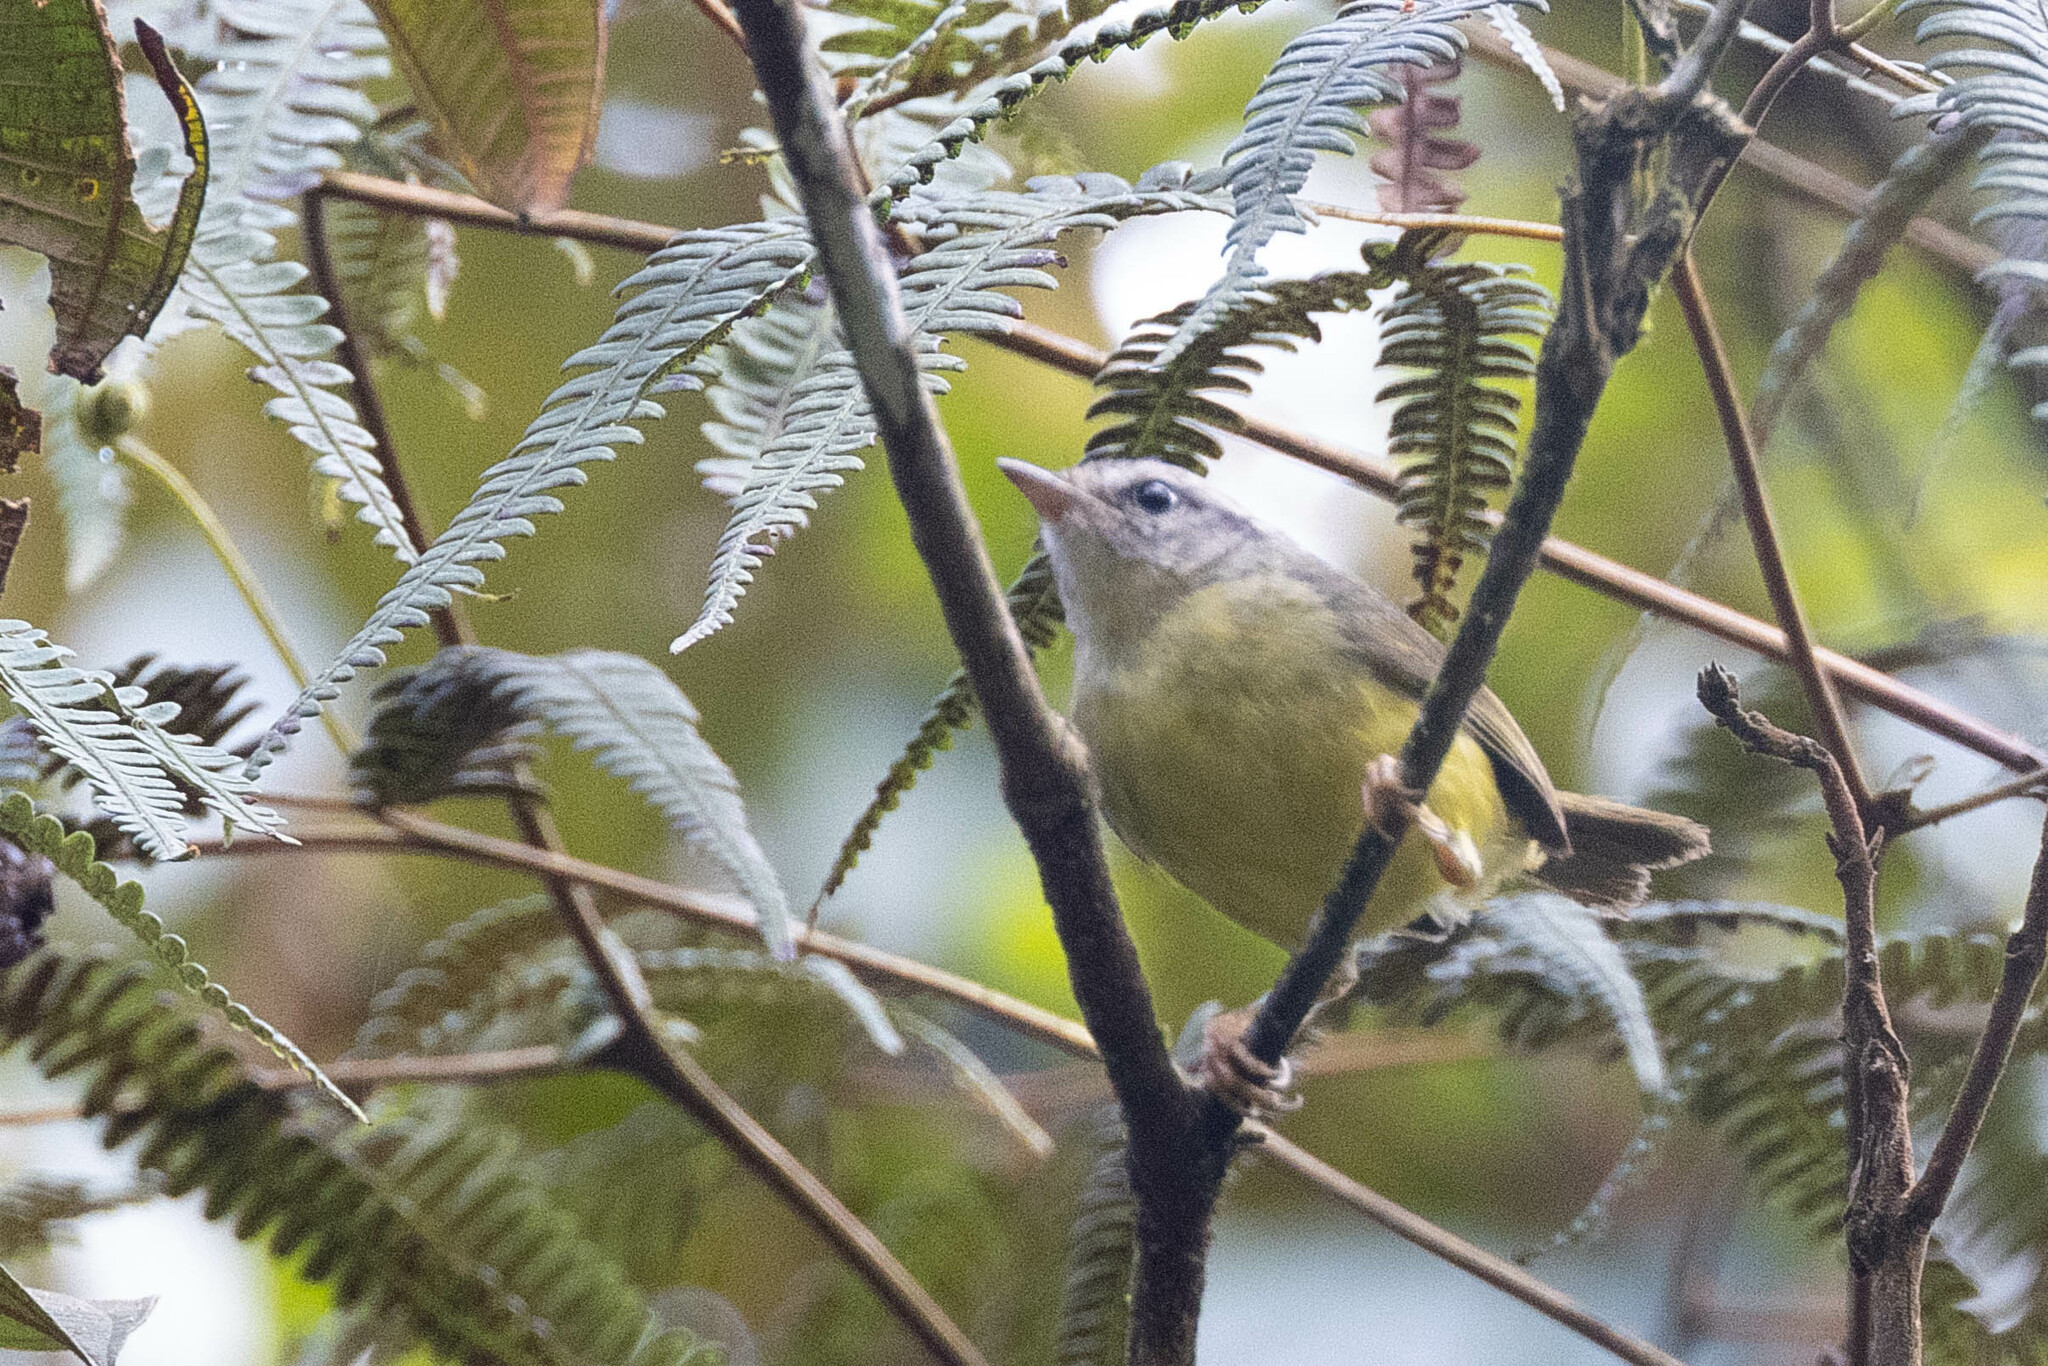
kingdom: Animalia
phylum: Chordata
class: Aves
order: Passeriformes
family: Parulidae
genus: Basileuterus
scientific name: Basileuterus trifasciatus
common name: Three-banded warbler
